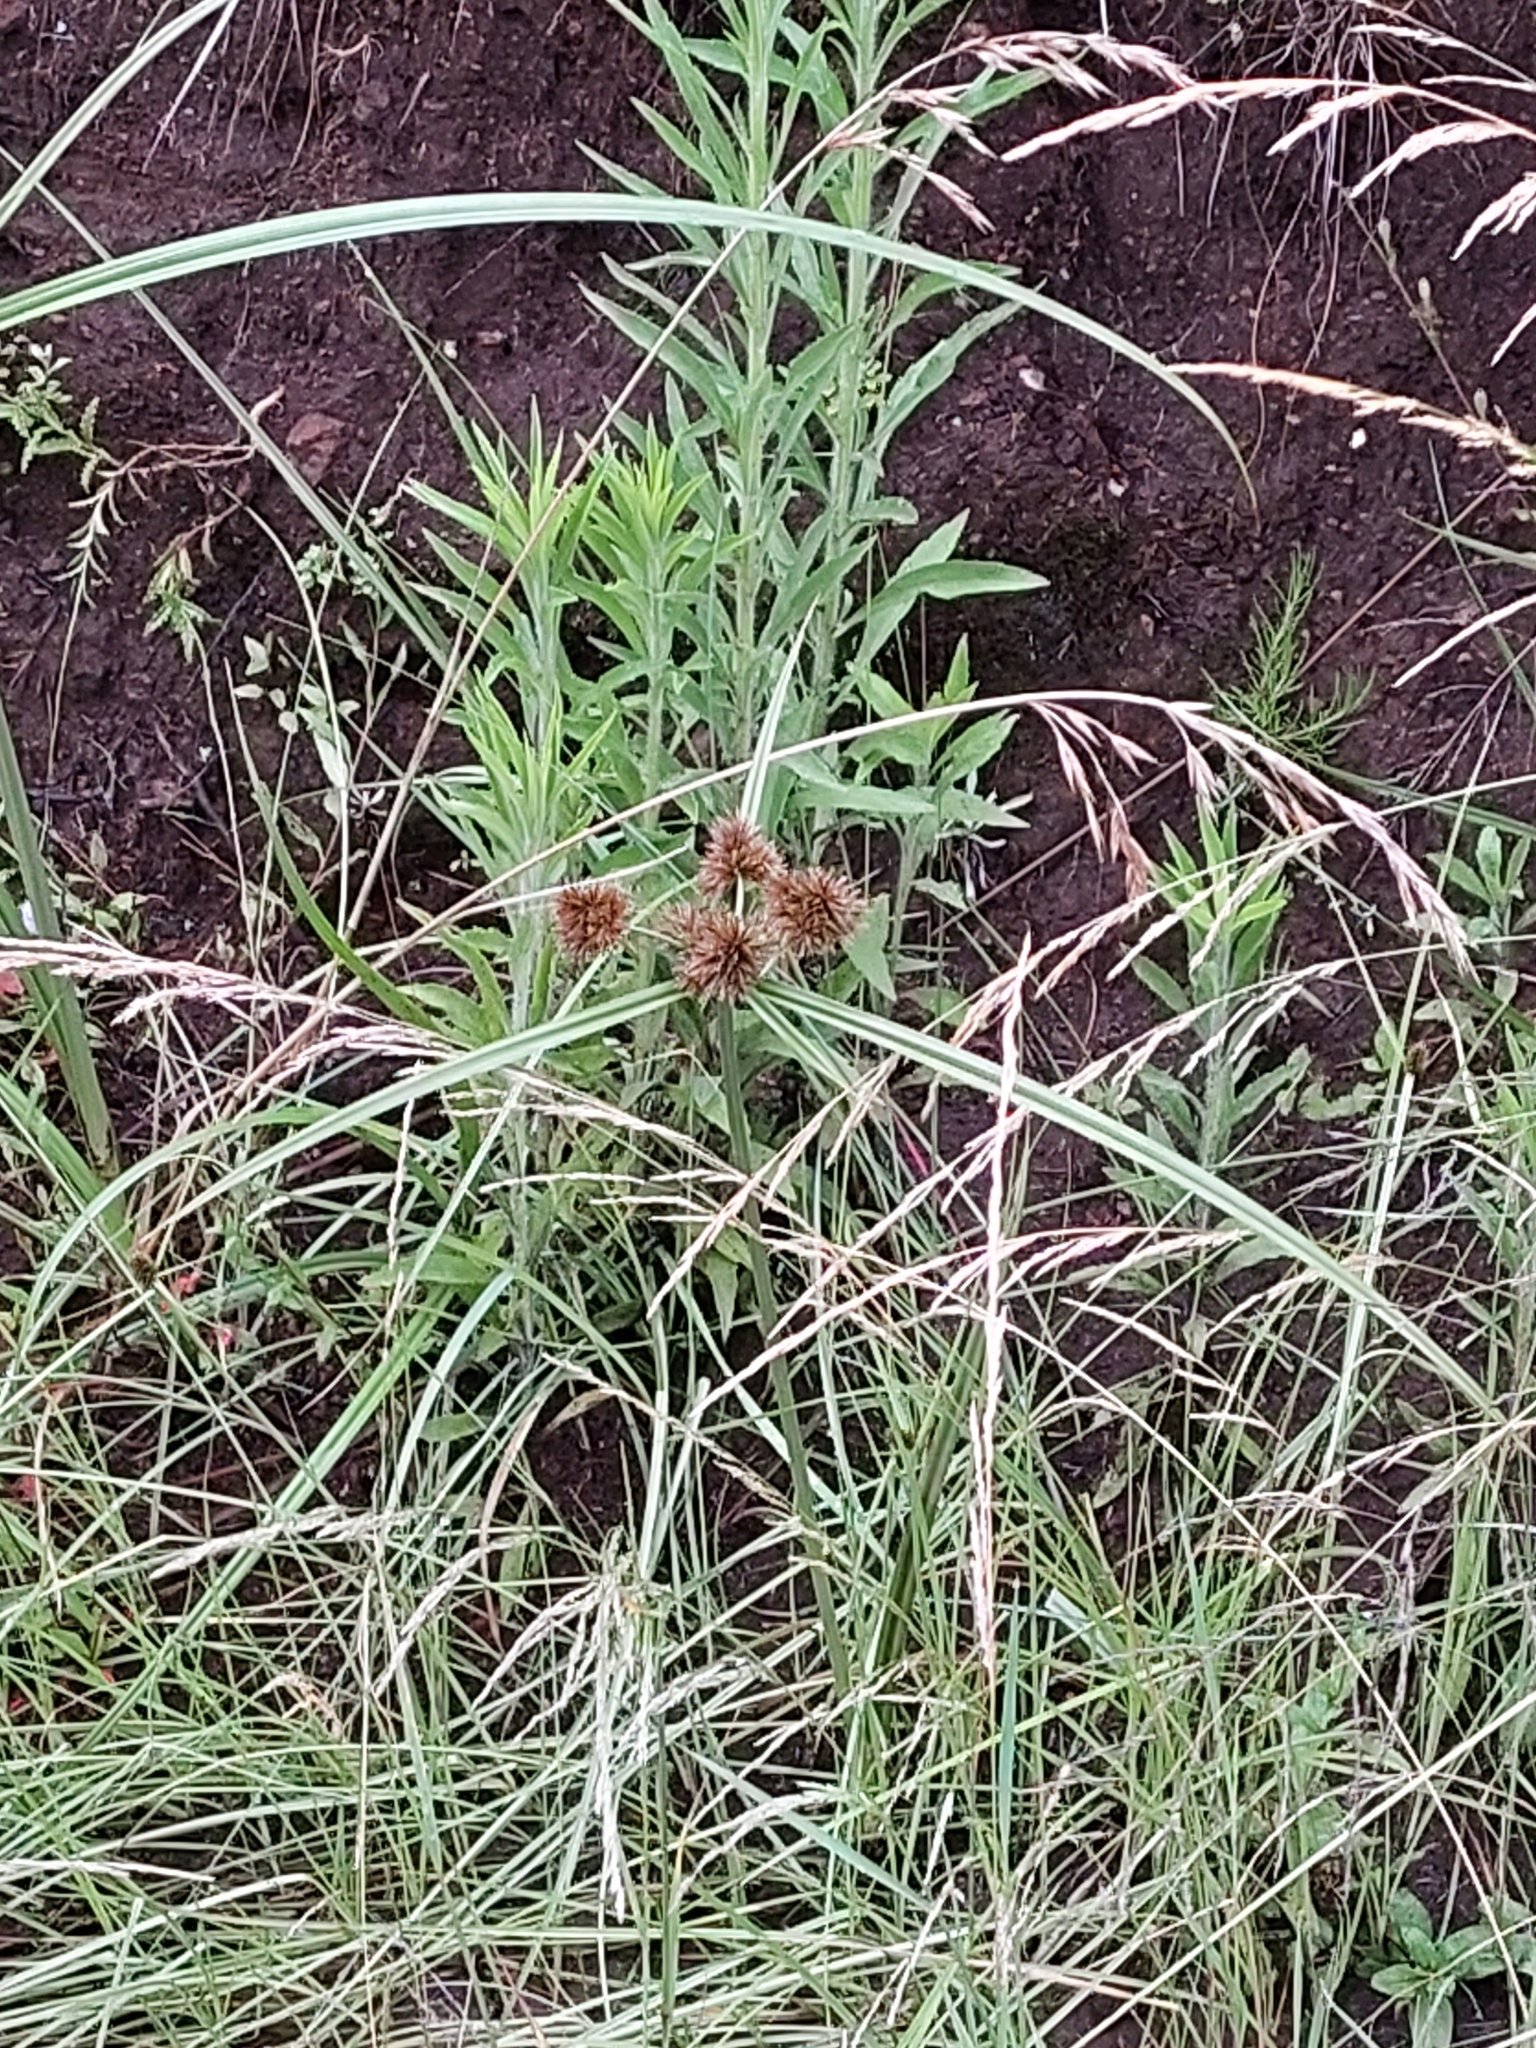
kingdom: Plantae
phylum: Tracheophyta
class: Liliopsida
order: Poales
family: Cyperaceae
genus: Cyperus
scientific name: Cyperus congestus
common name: Dense flat sedge
